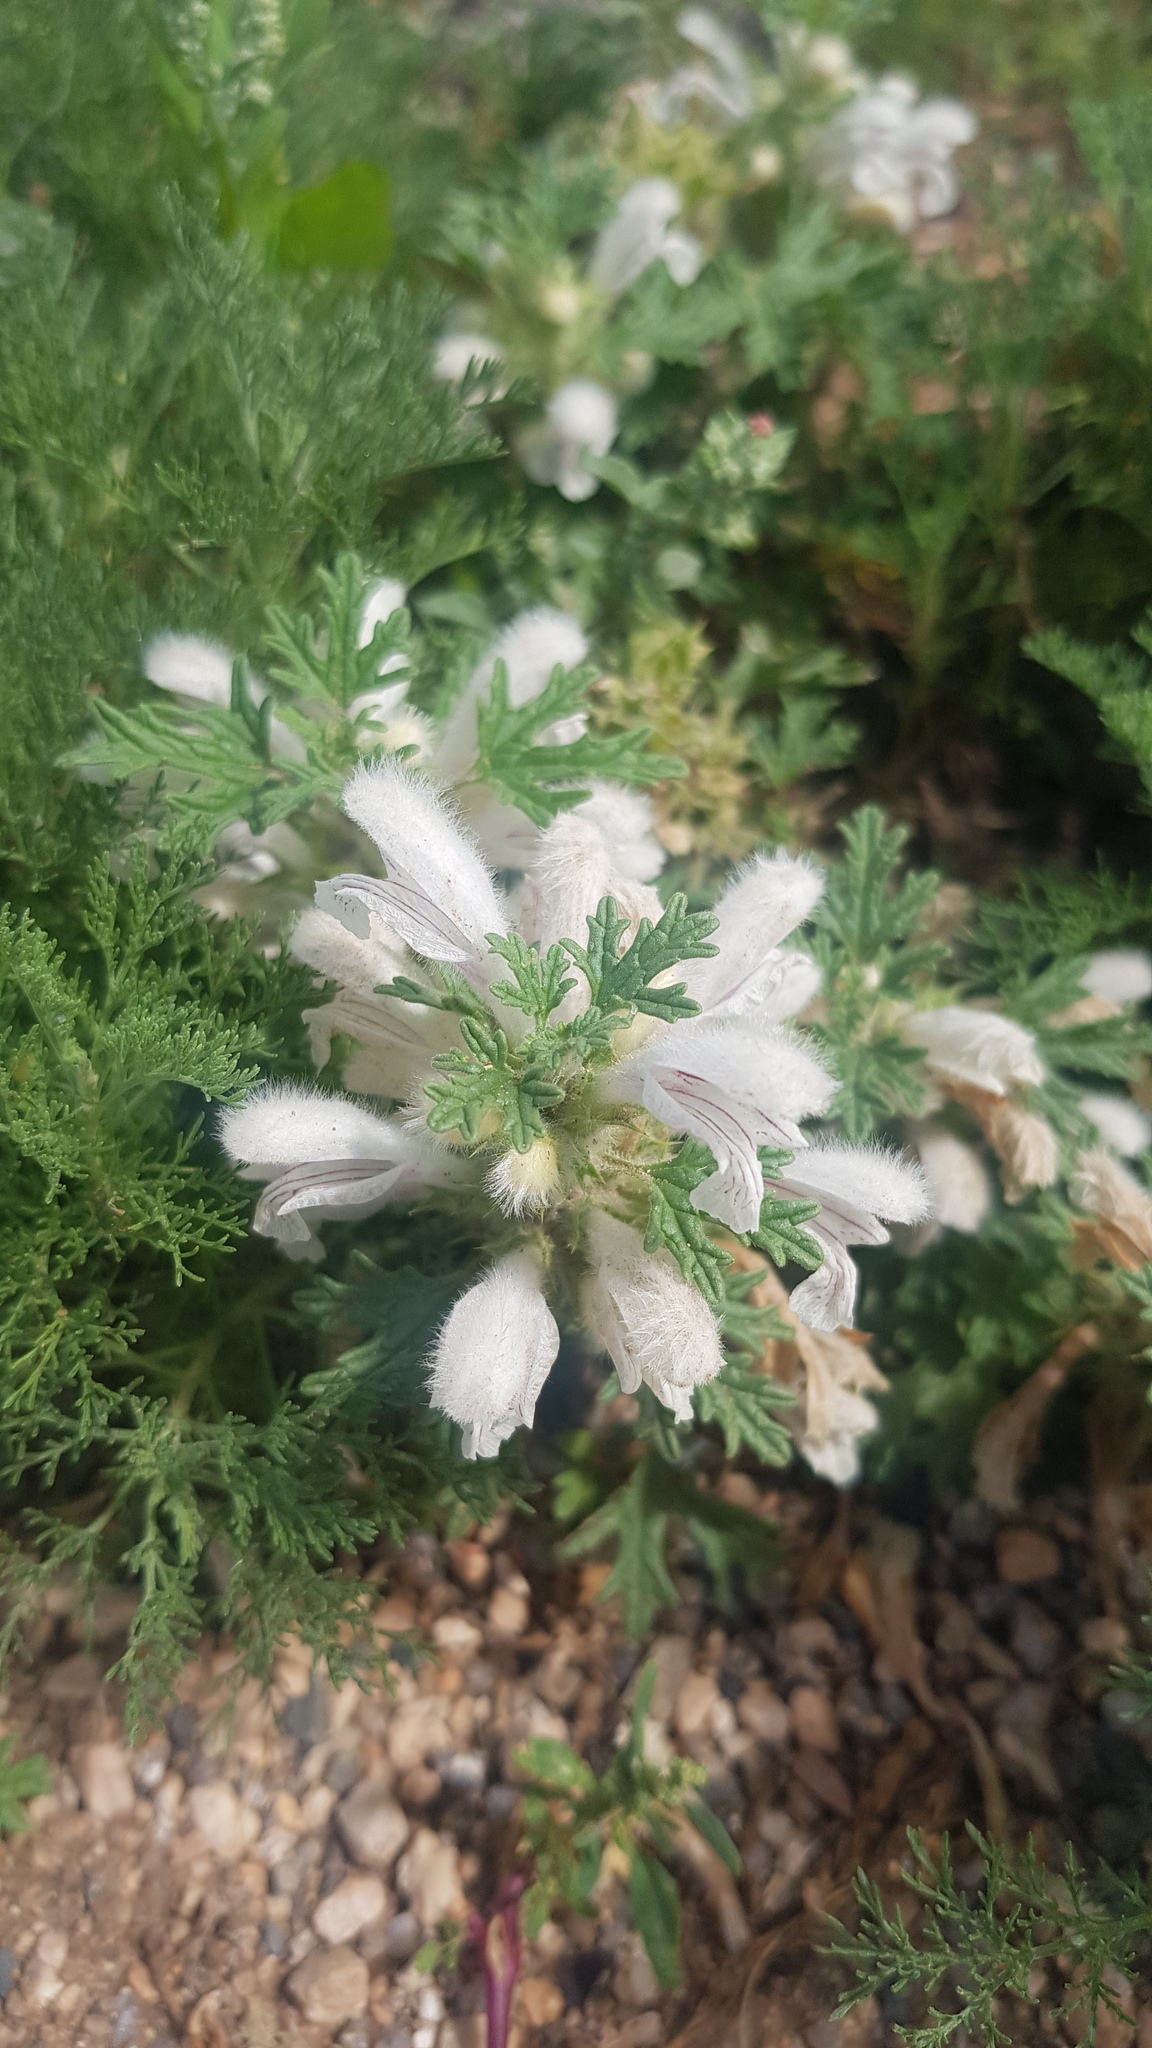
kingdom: Plantae
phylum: Tracheophyta
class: Magnoliopsida
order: Lamiales
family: Lamiaceae
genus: Panzerina
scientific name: Panzerina lanata
